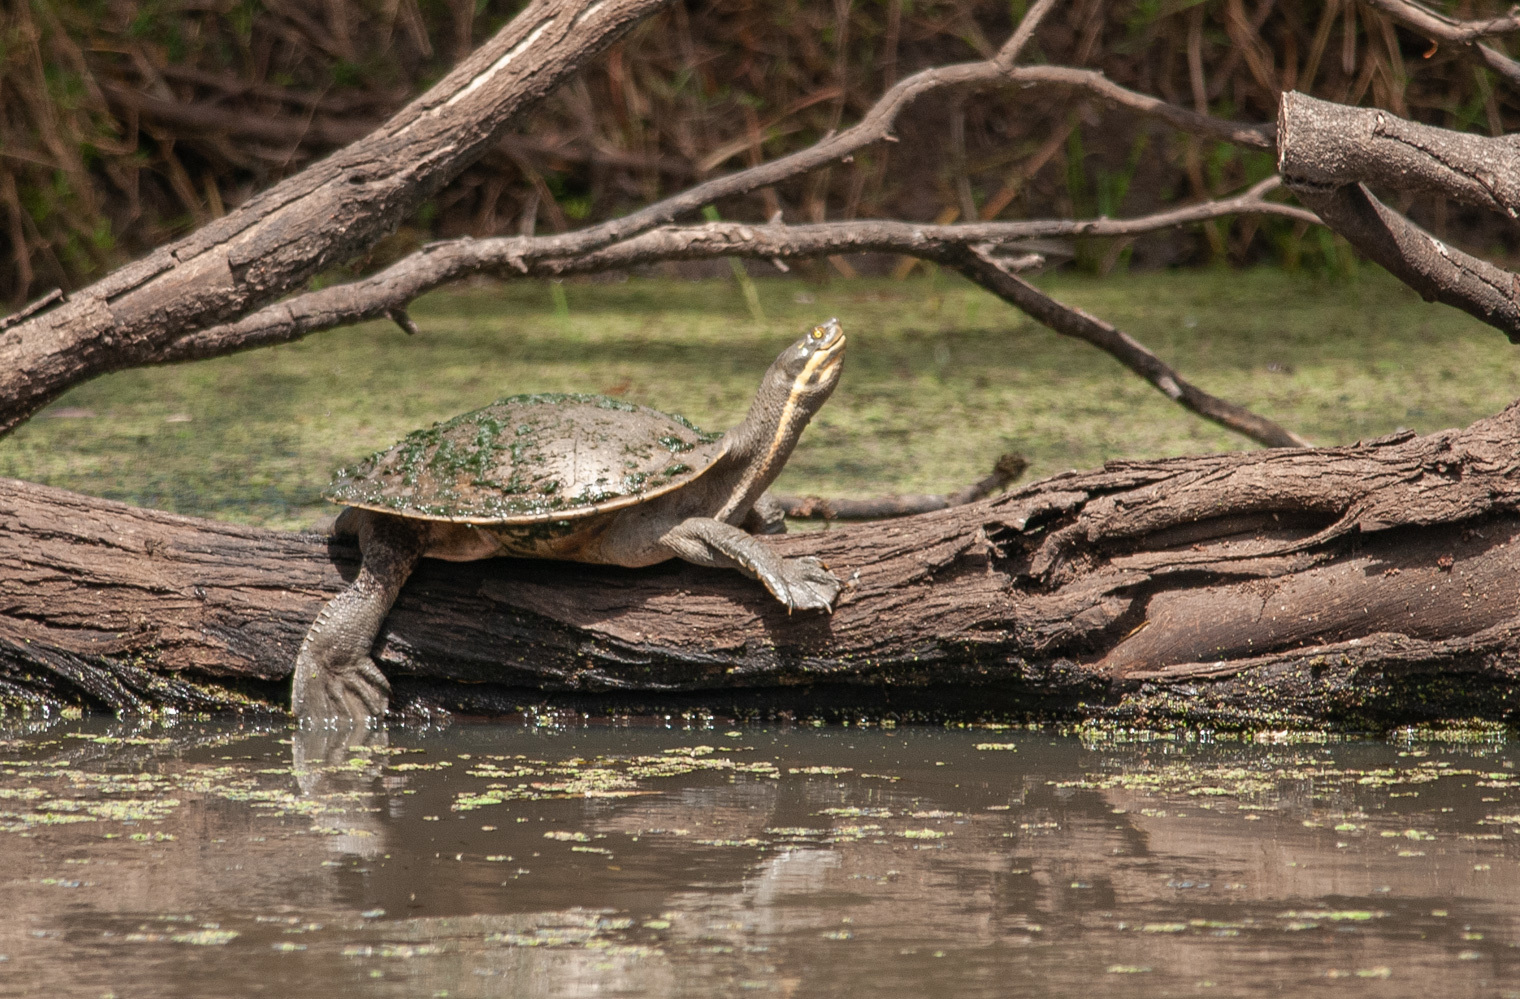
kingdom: Animalia
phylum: Chordata
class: Testudines
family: Chelidae
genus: Emydura
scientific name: Emydura macquarii
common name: Murray river turtle
